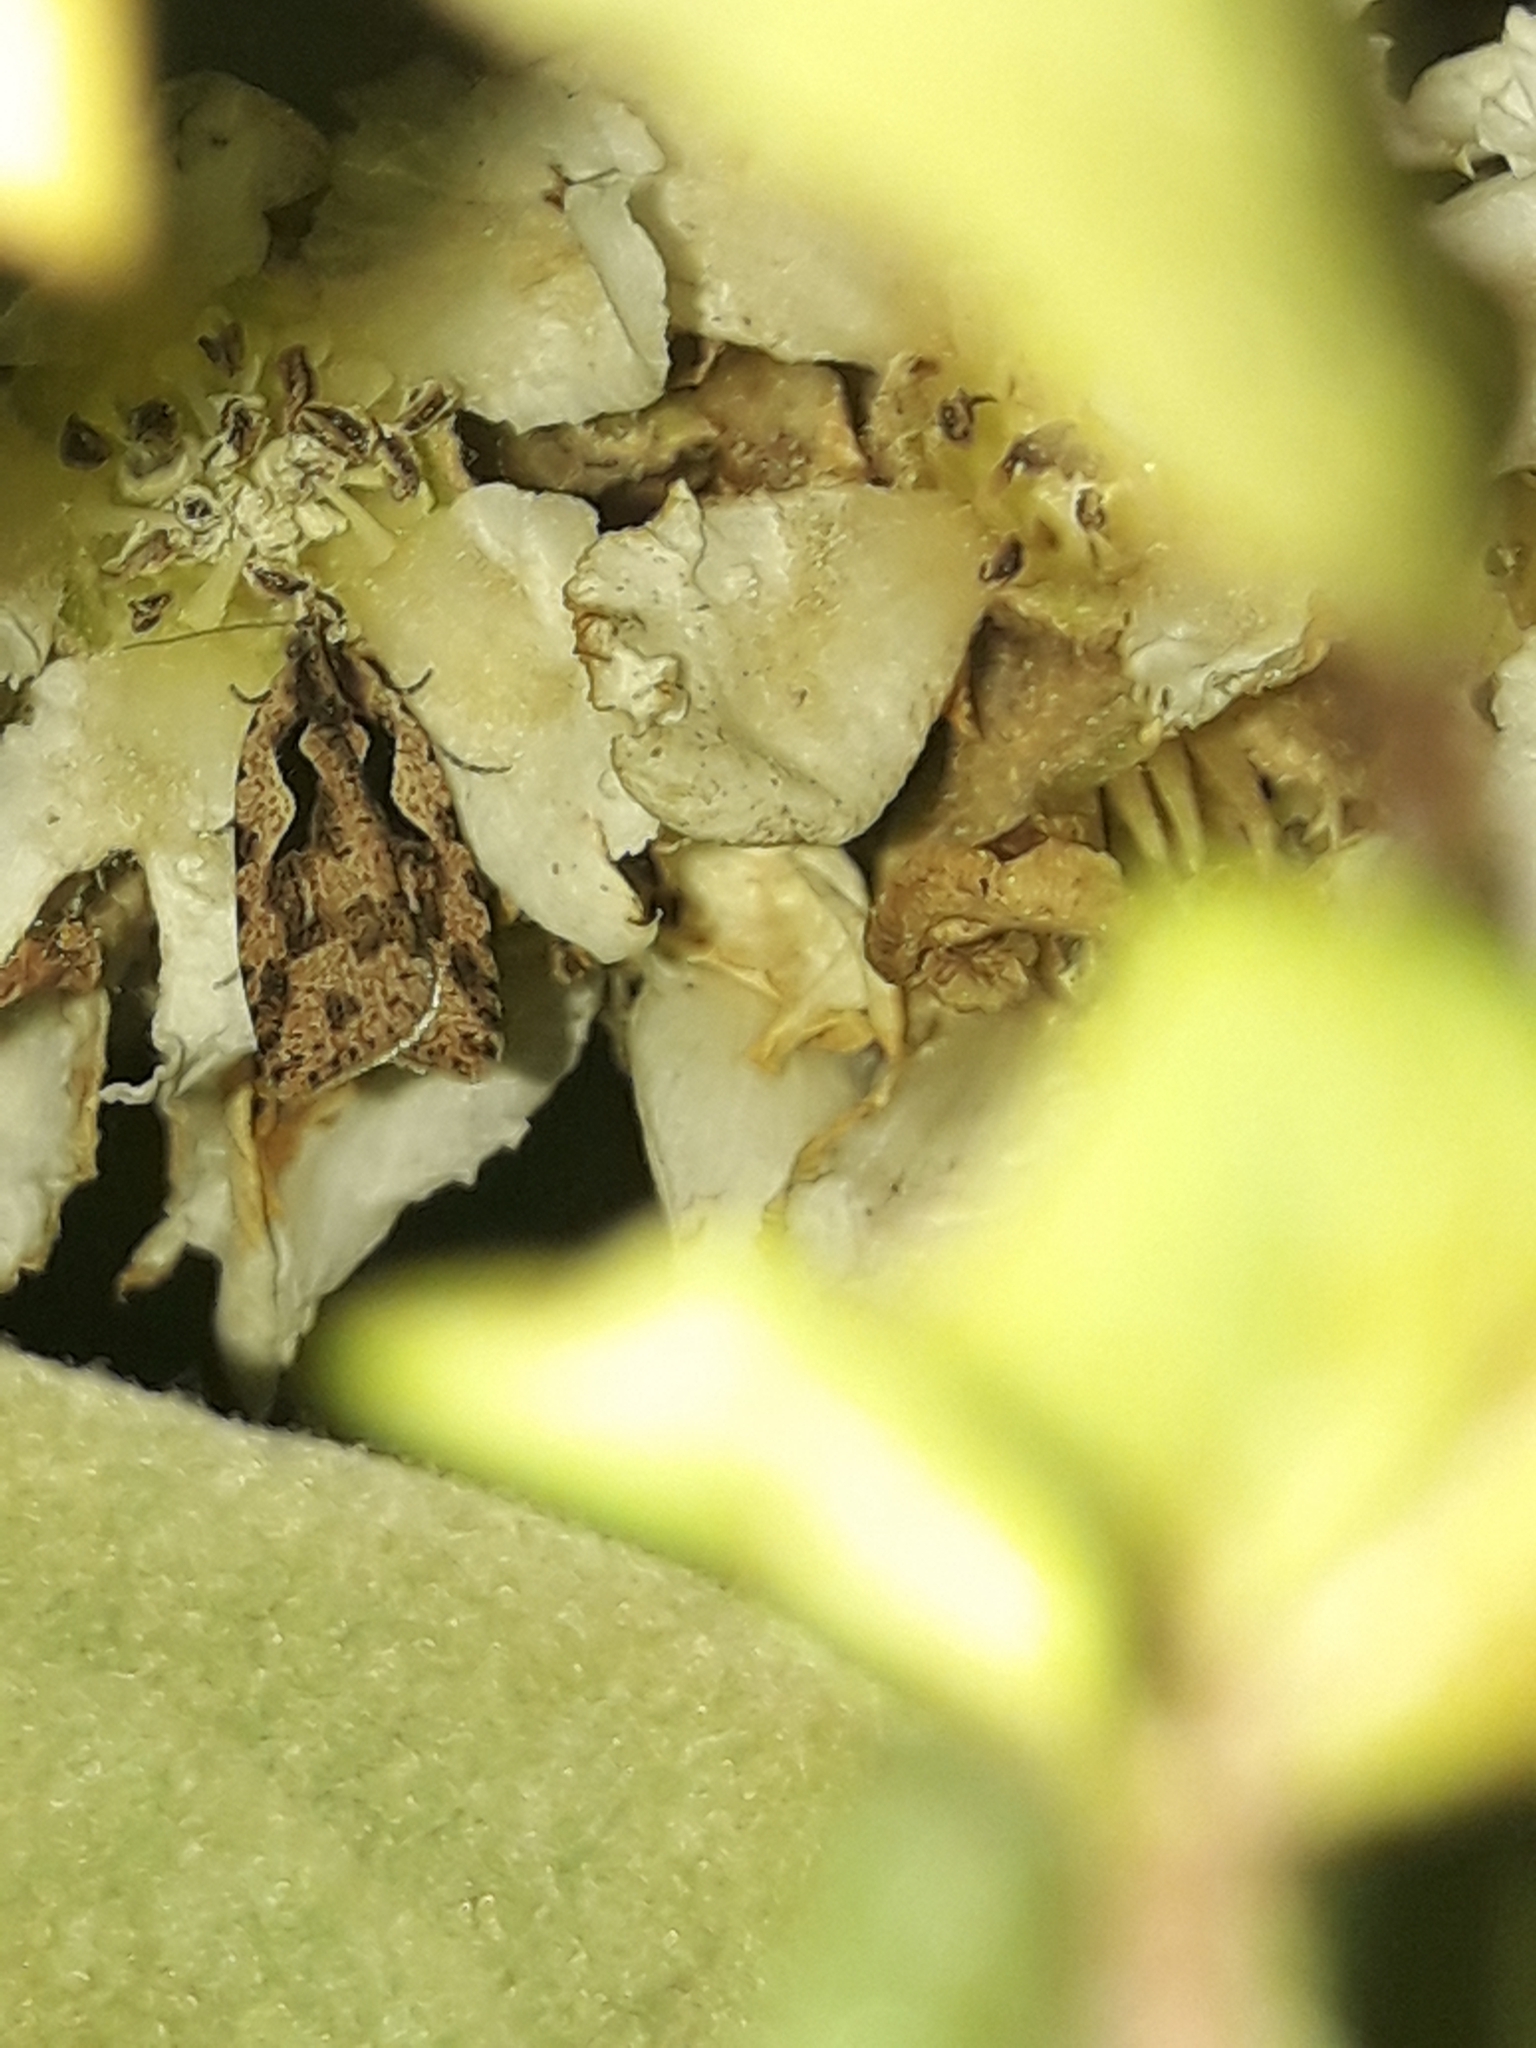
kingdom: Animalia
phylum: Arthropoda
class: Insecta
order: Lepidoptera
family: Tortricidae
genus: Cnephasia
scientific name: Cnephasia jactatana
